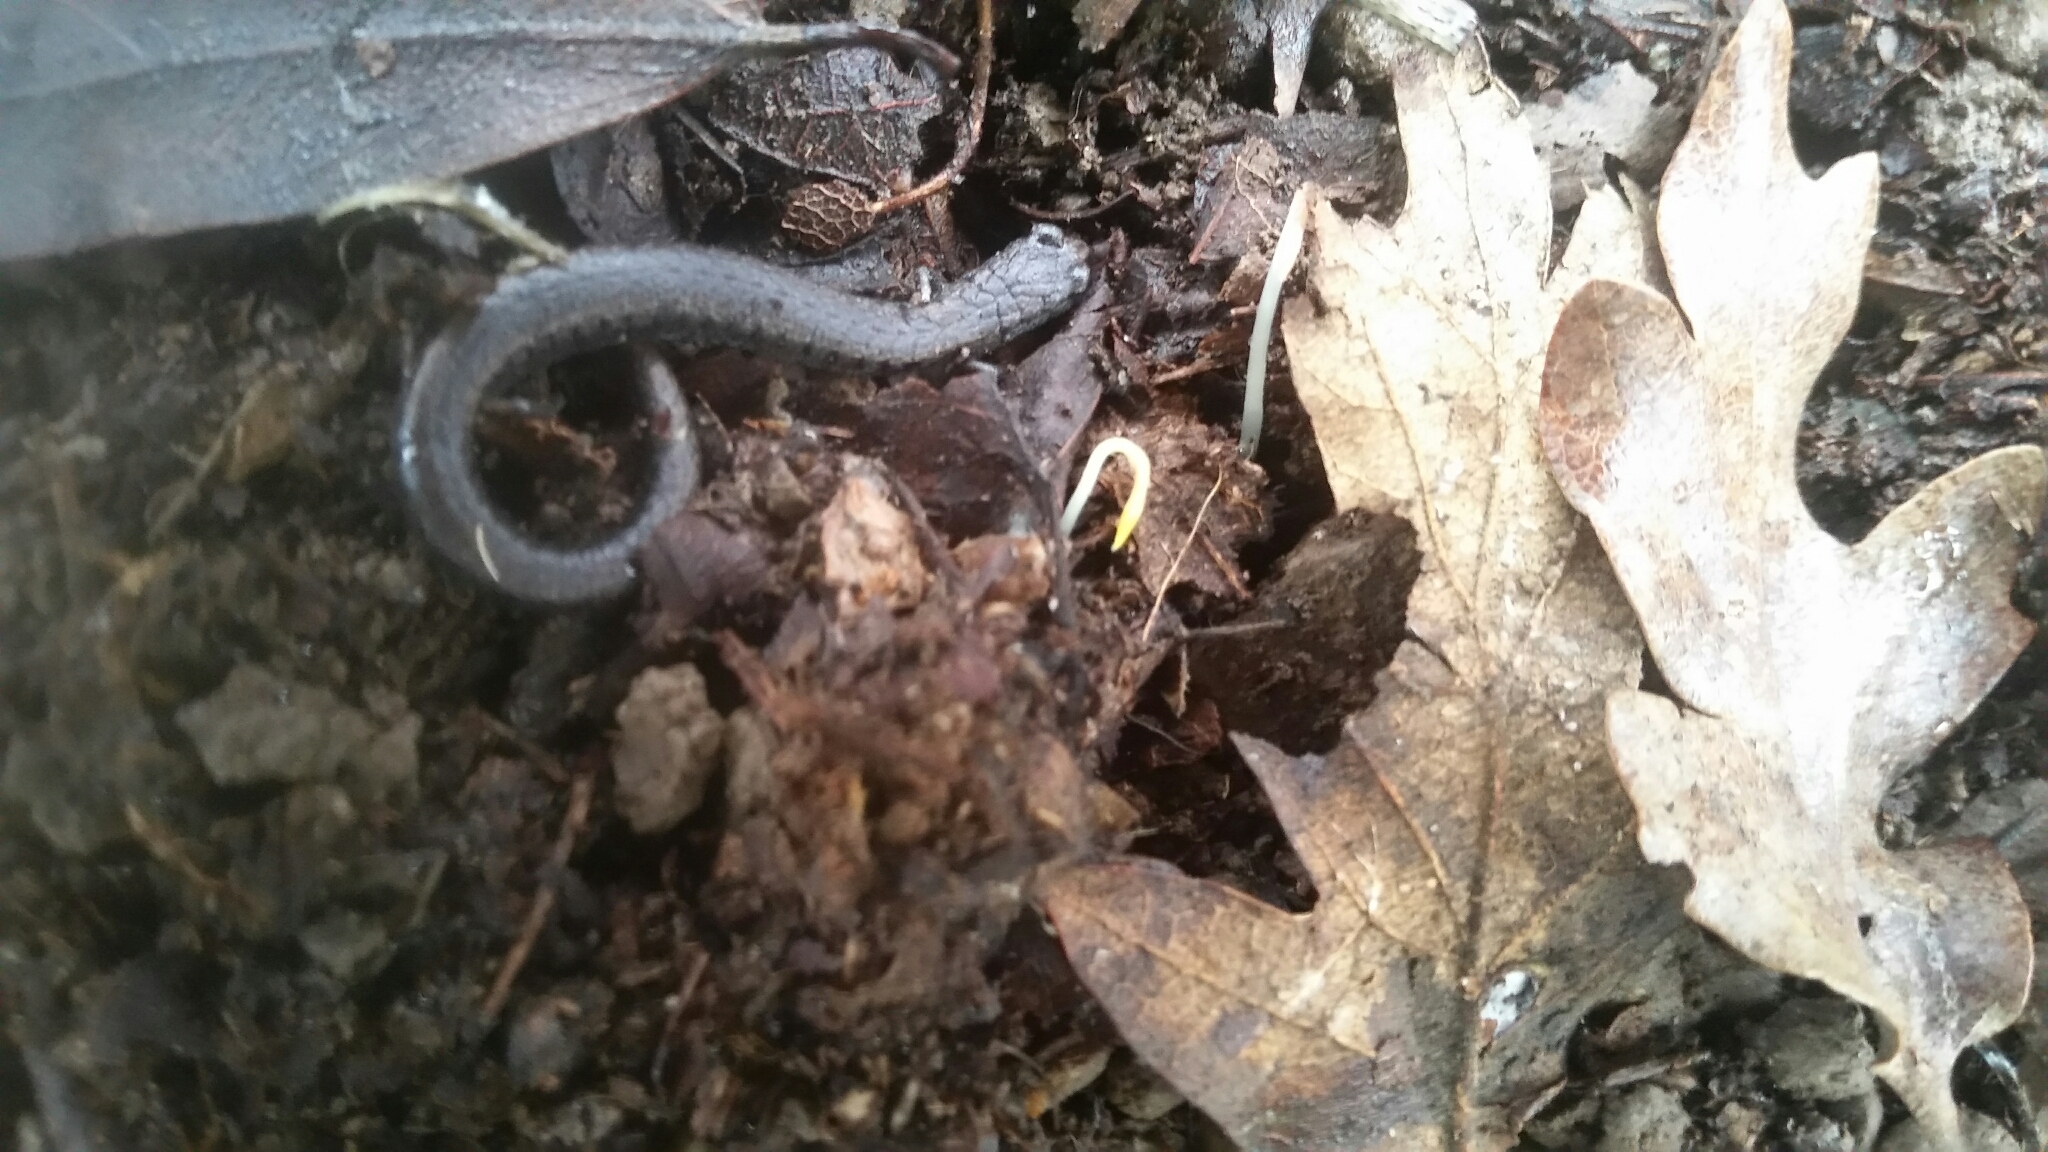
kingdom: Animalia
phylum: Chordata
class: Amphibia
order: Caudata
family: Plethodontidae
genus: Batrachoseps
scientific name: Batrachoseps attenuatus
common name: California slender salamander
